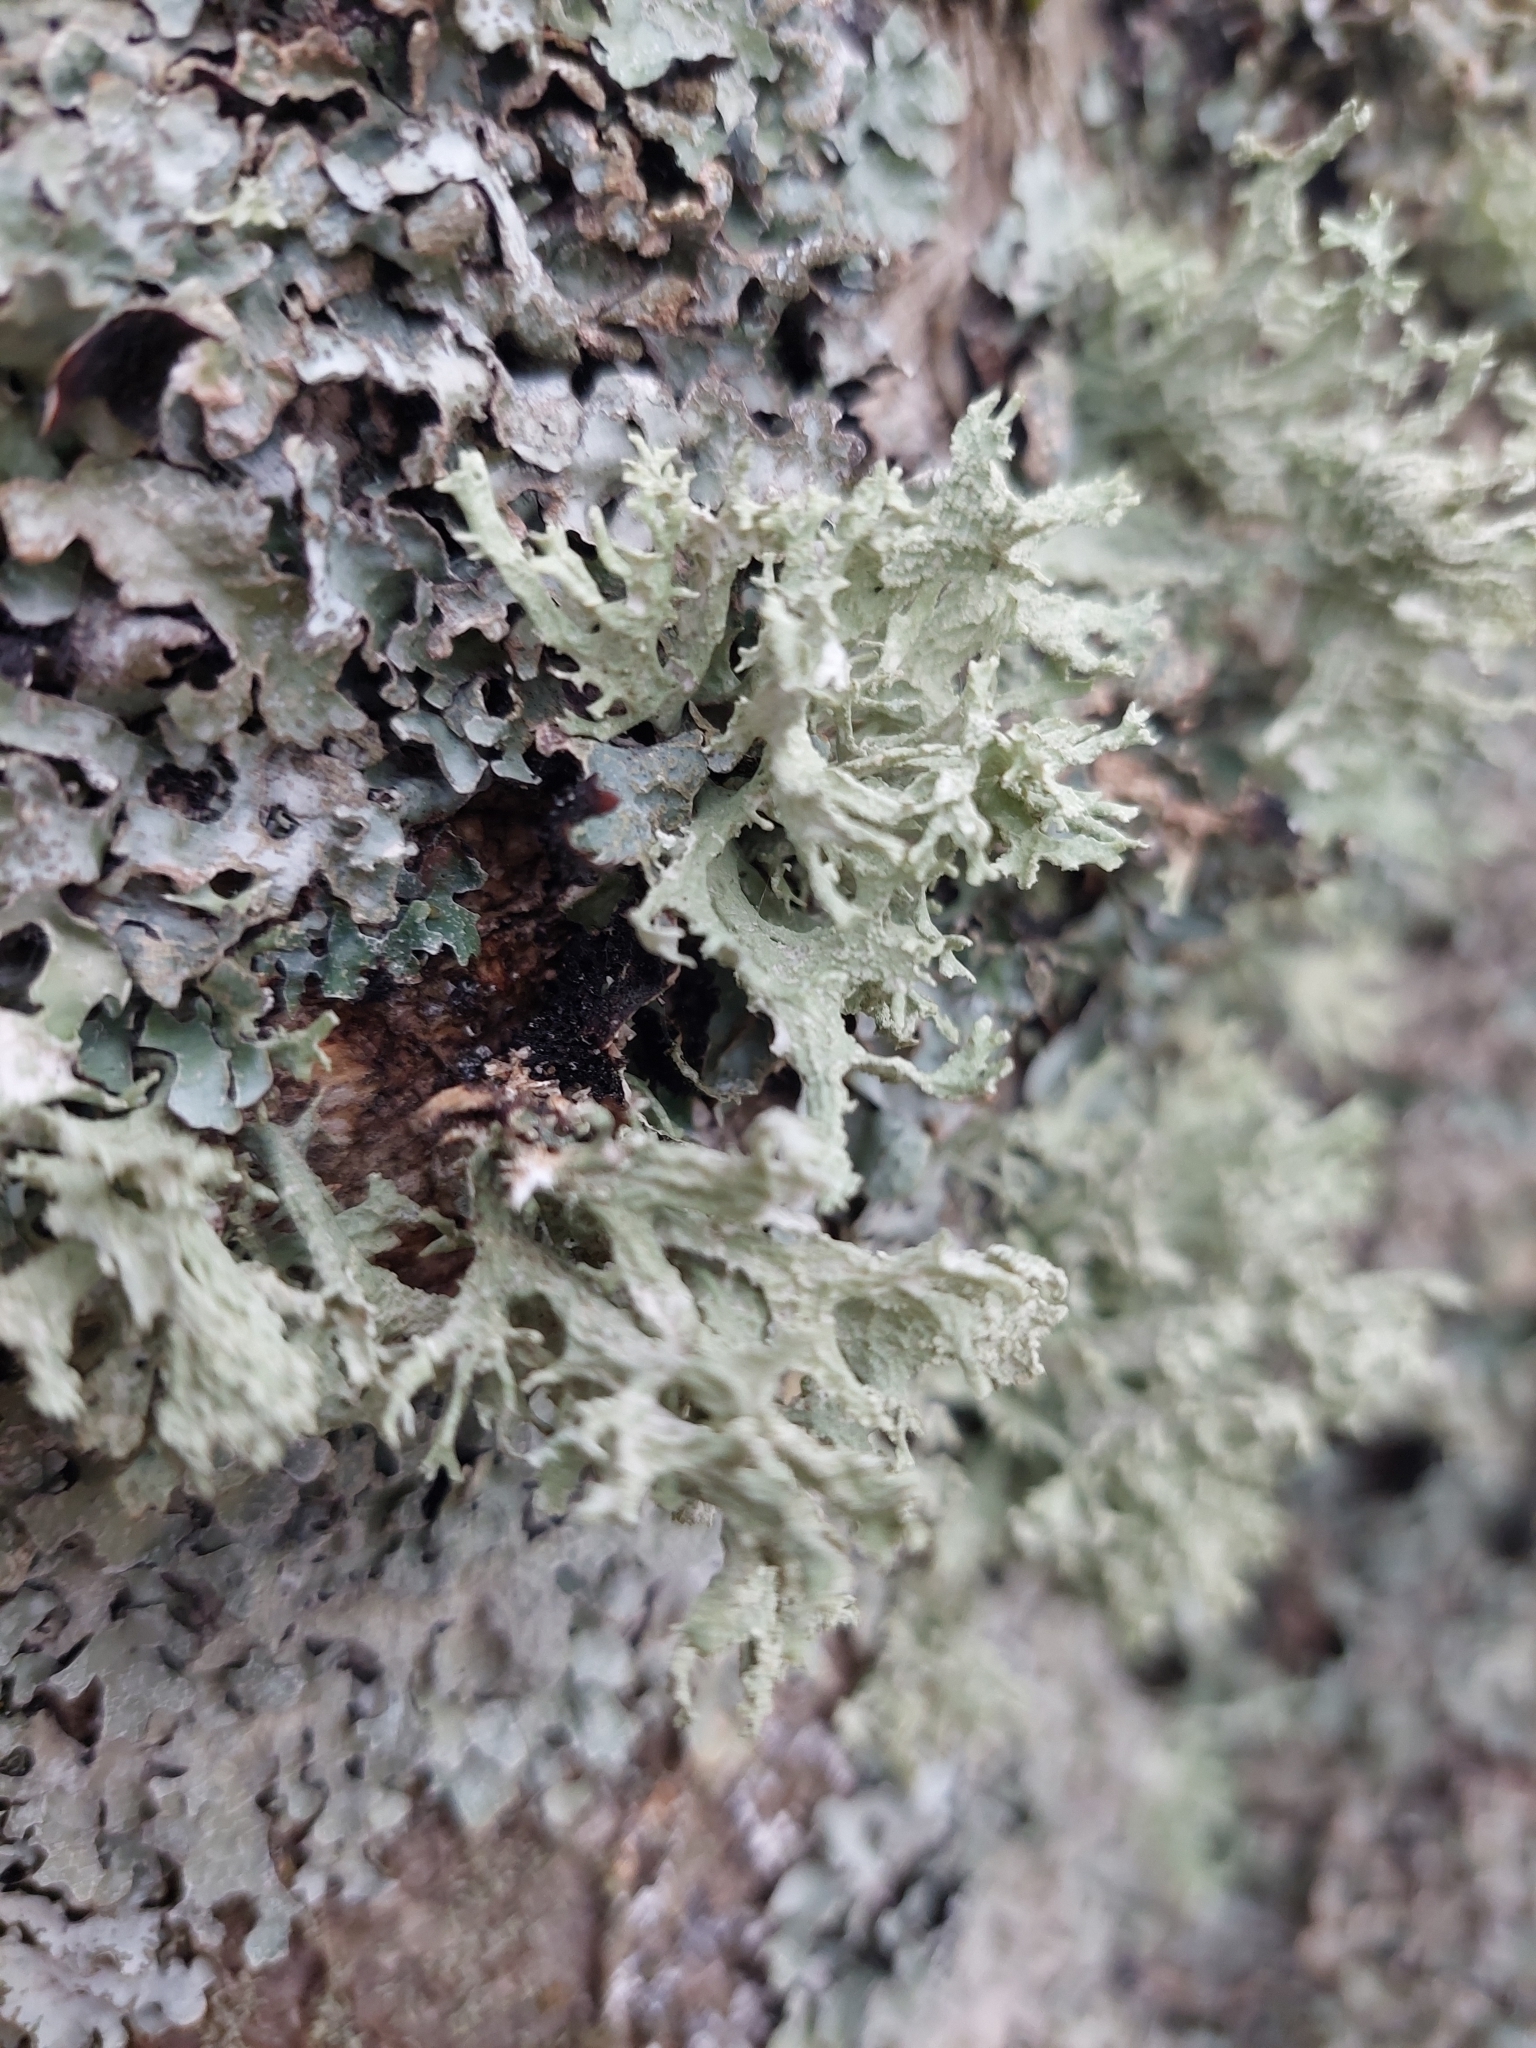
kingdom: Fungi
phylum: Ascomycota
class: Lecanoromycetes
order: Lecanorales
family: Parmeliaceae
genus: Evernia
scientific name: Evernia prunastri
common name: Oak moss
